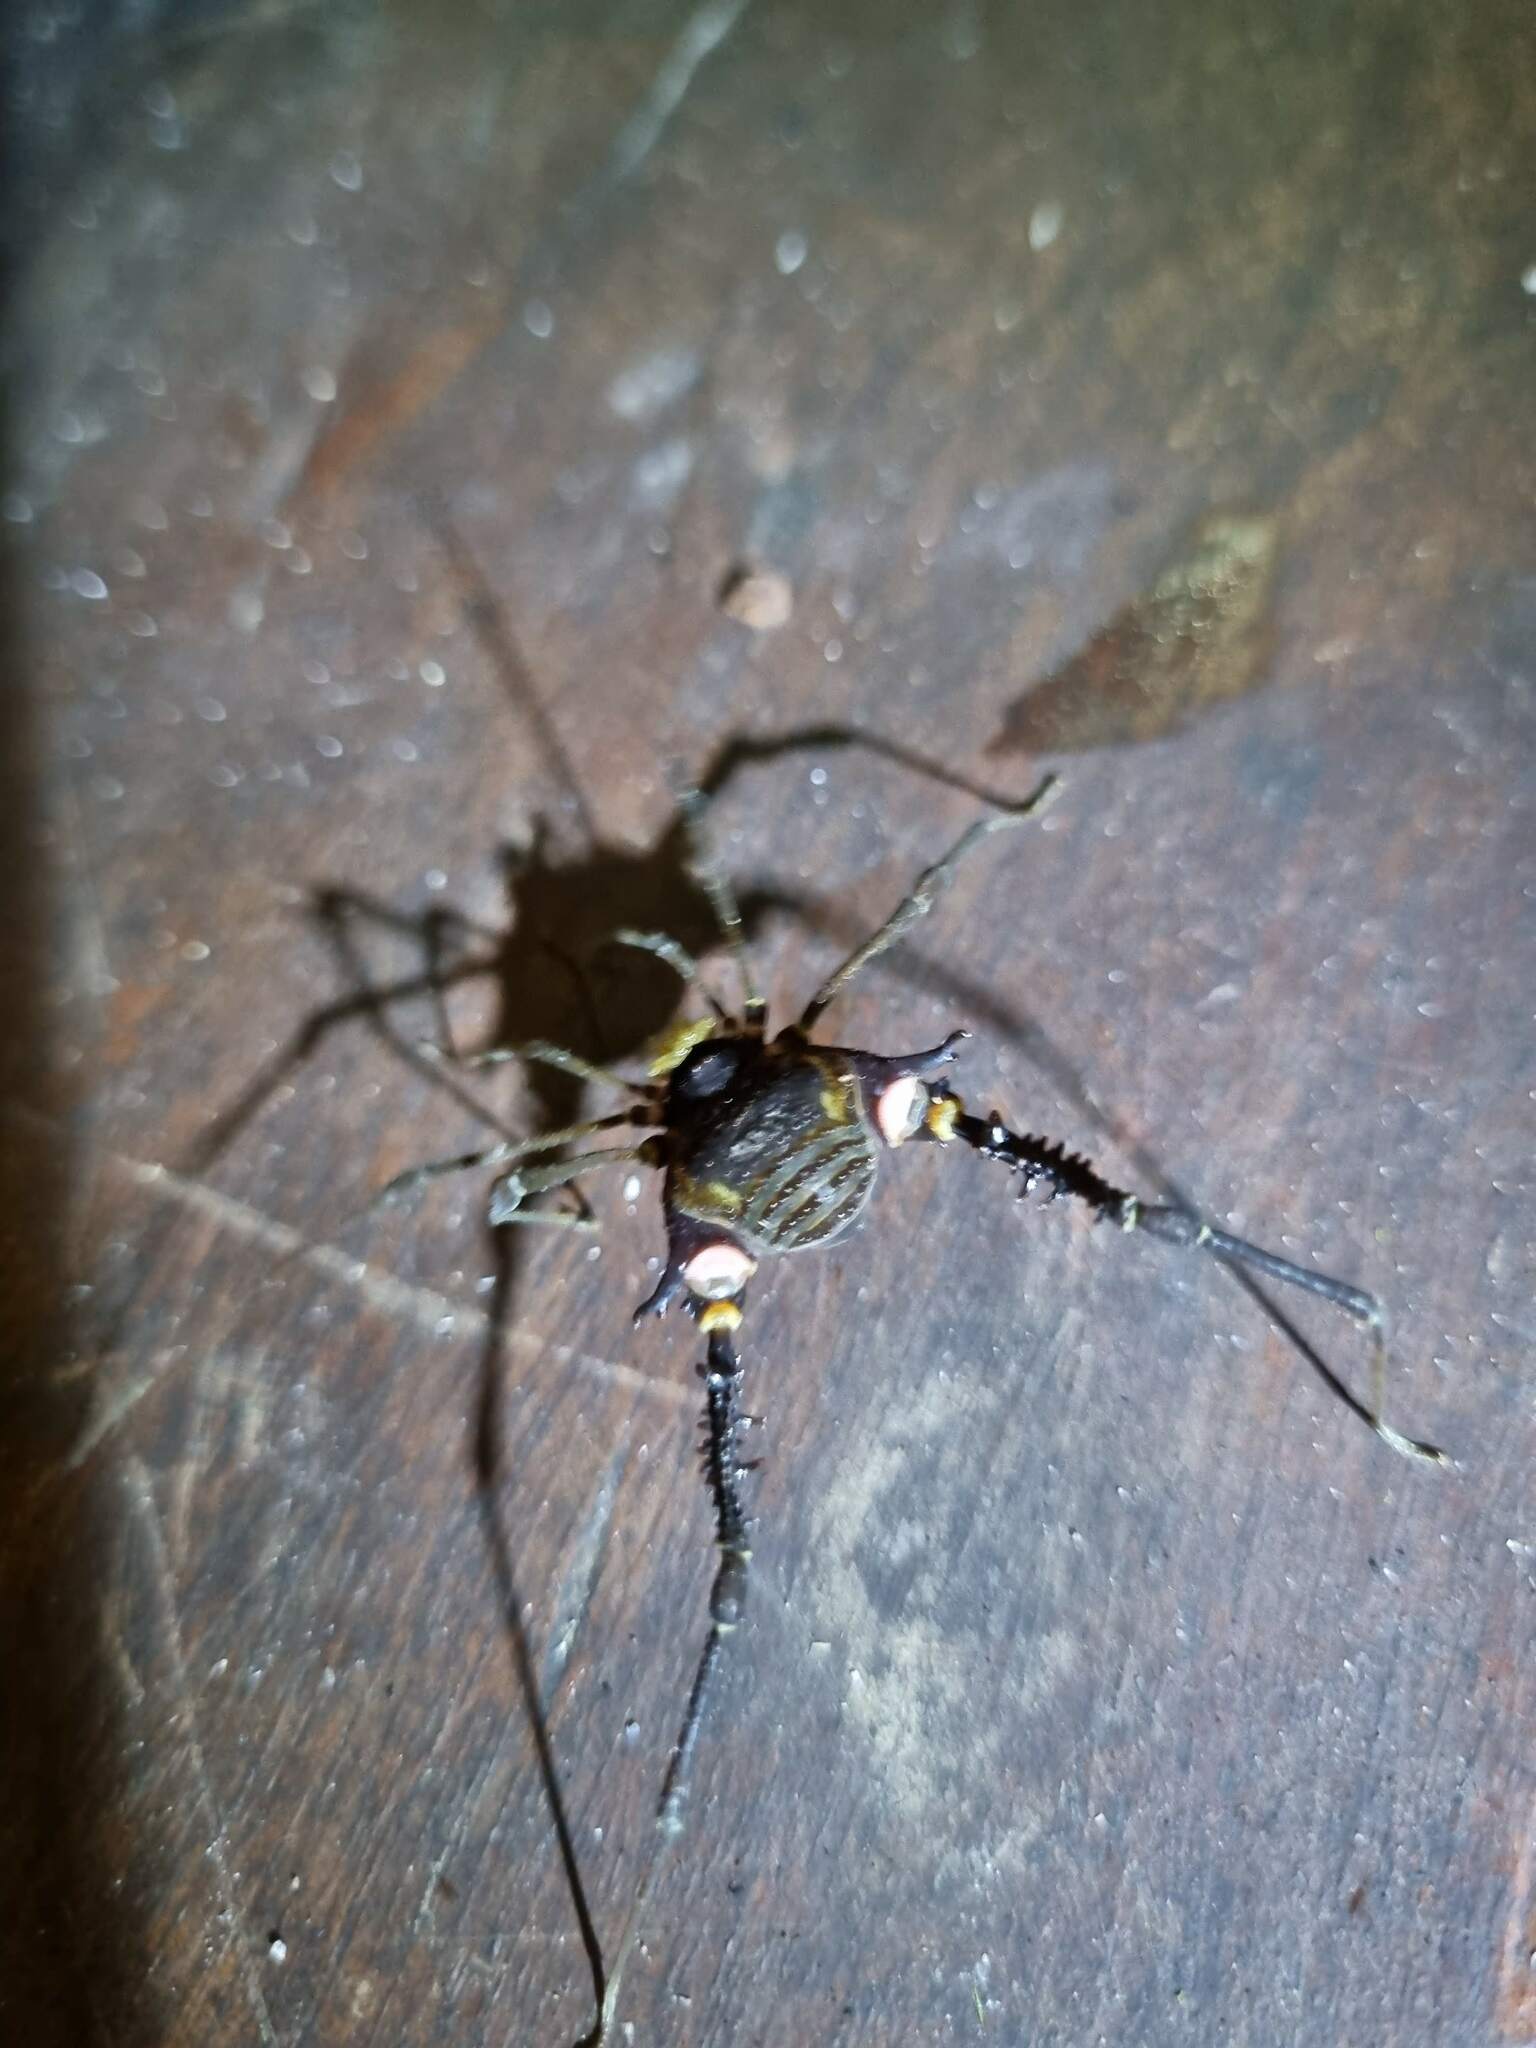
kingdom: Animalia
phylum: Arthropoda
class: Arachnida
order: Opiliones
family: Gonyleptidae
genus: Geraeocormobius
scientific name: Geraeocormobius sylvarum
